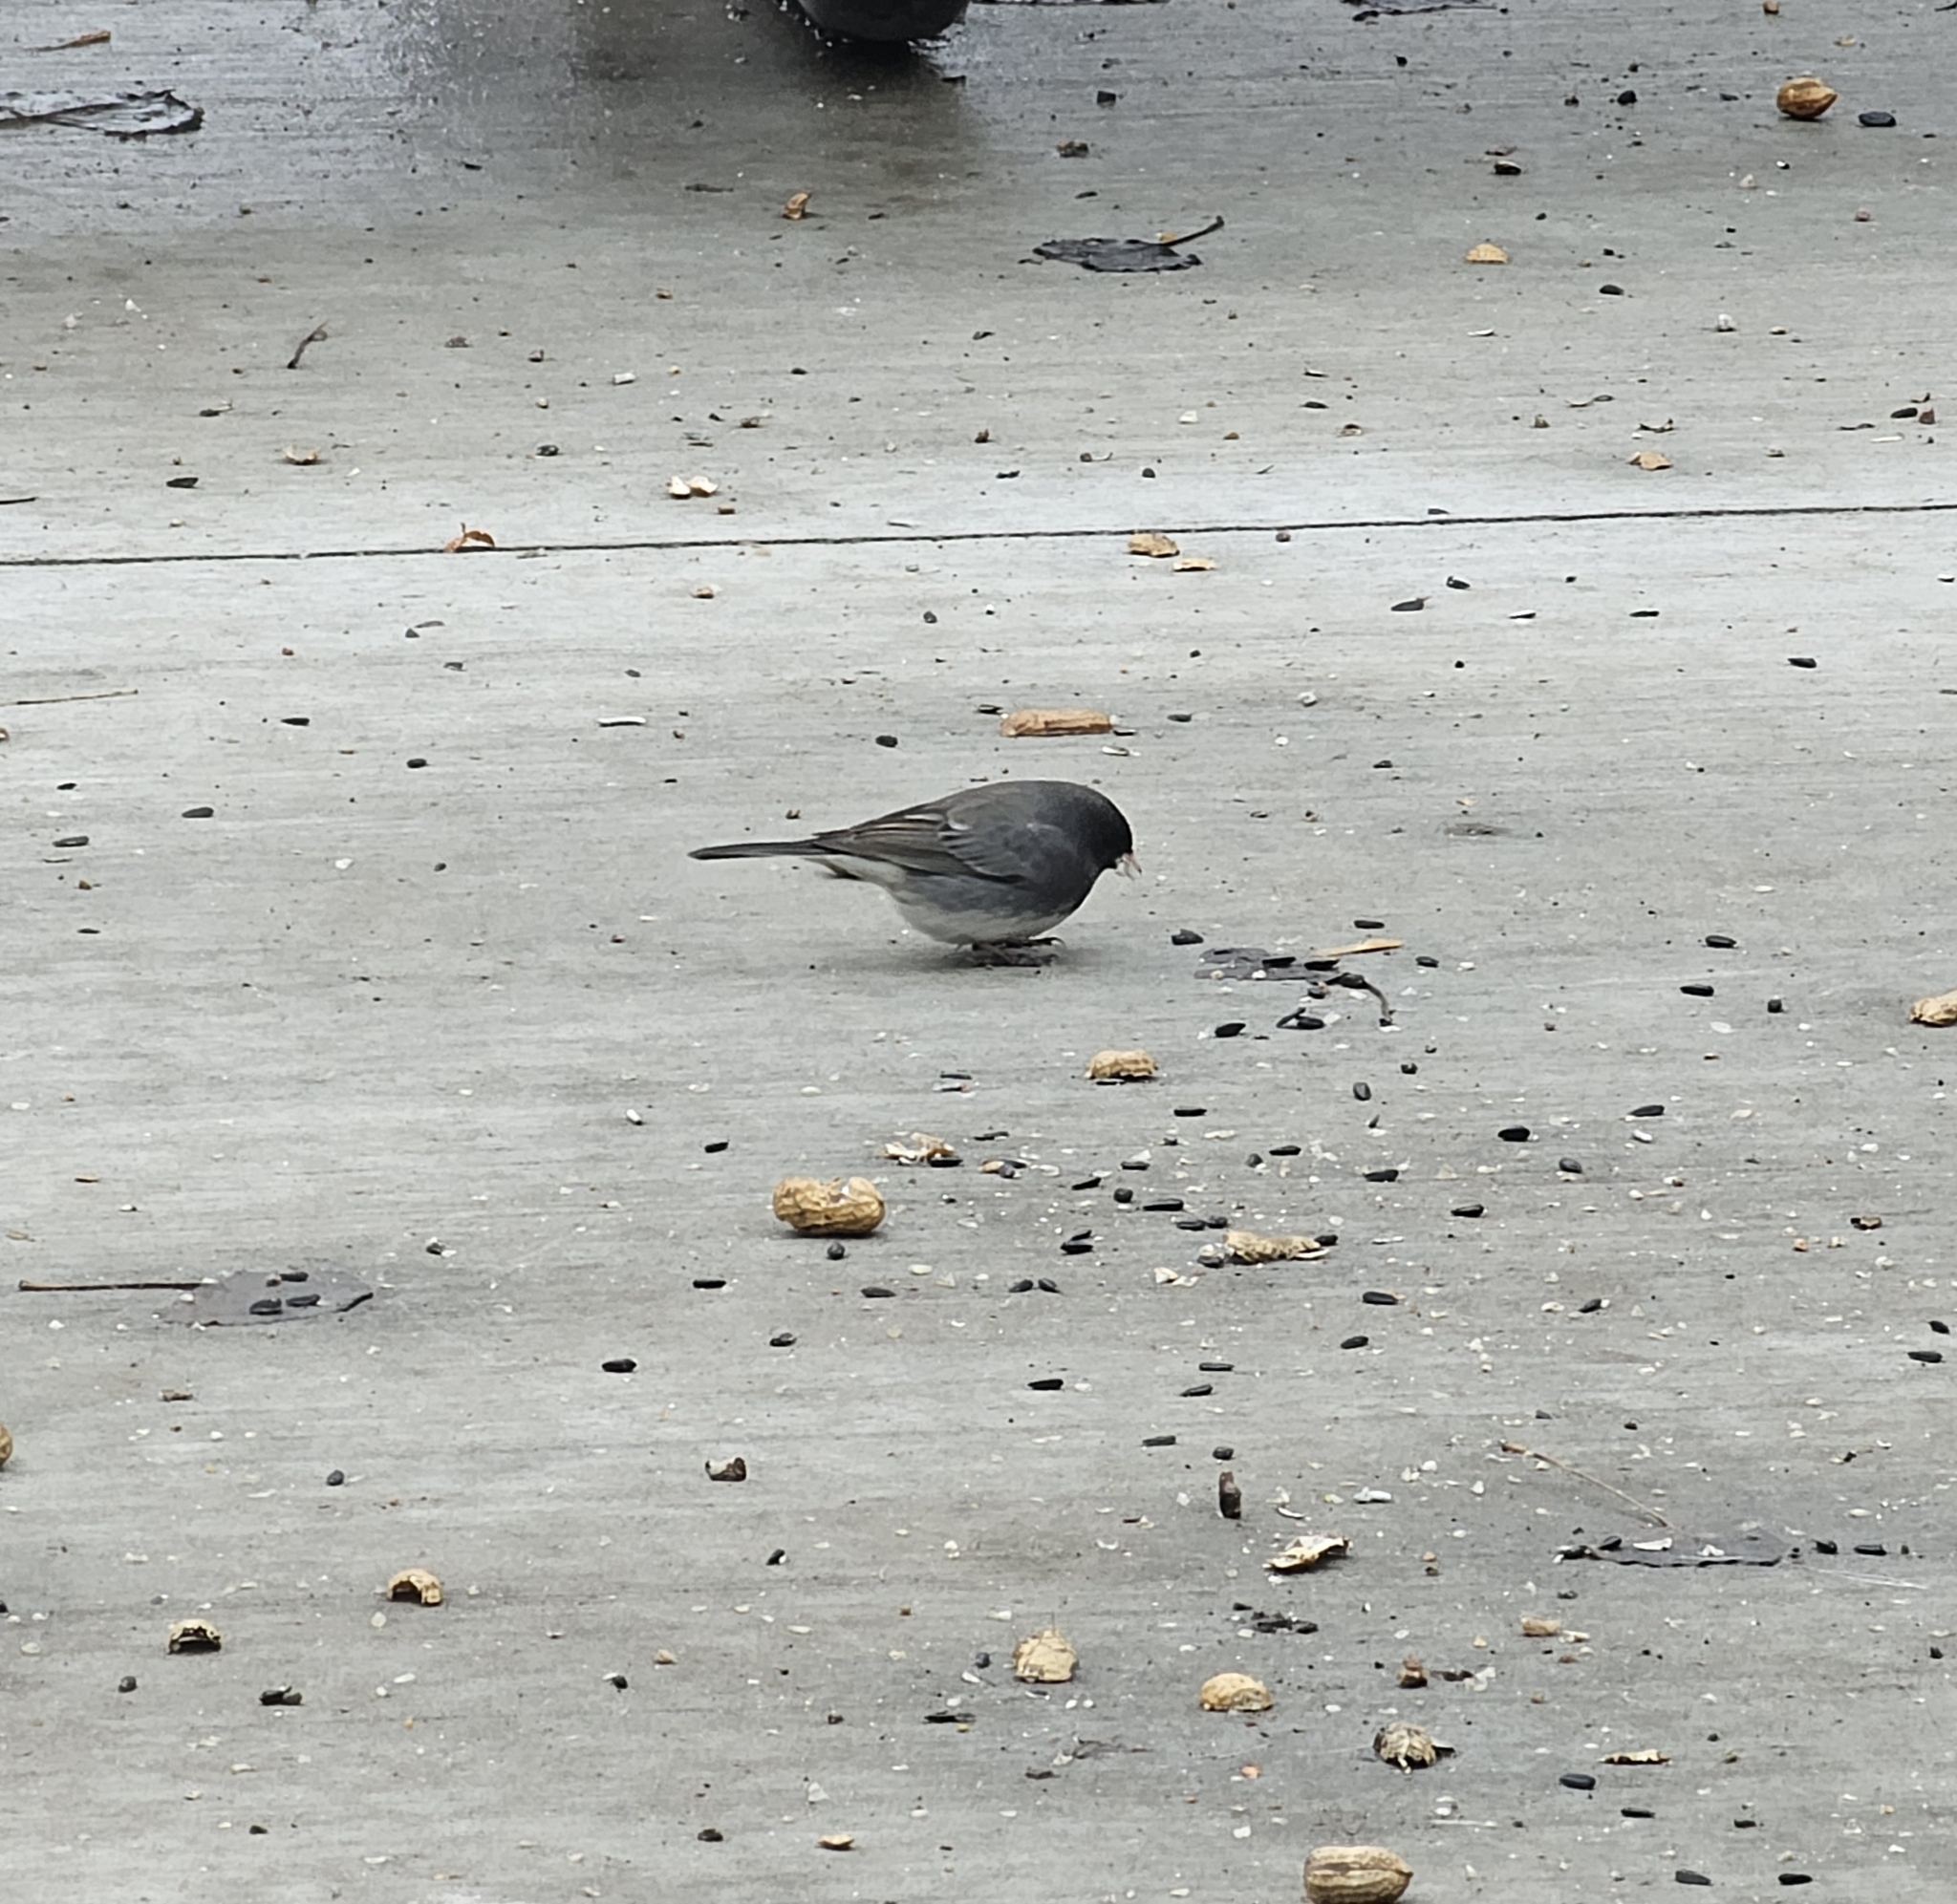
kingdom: Animalia
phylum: Chordata
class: Aves
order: Passeriformes
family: Passerellidae
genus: Junco
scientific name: Junco hyemalis
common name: Dark-eyed junco
